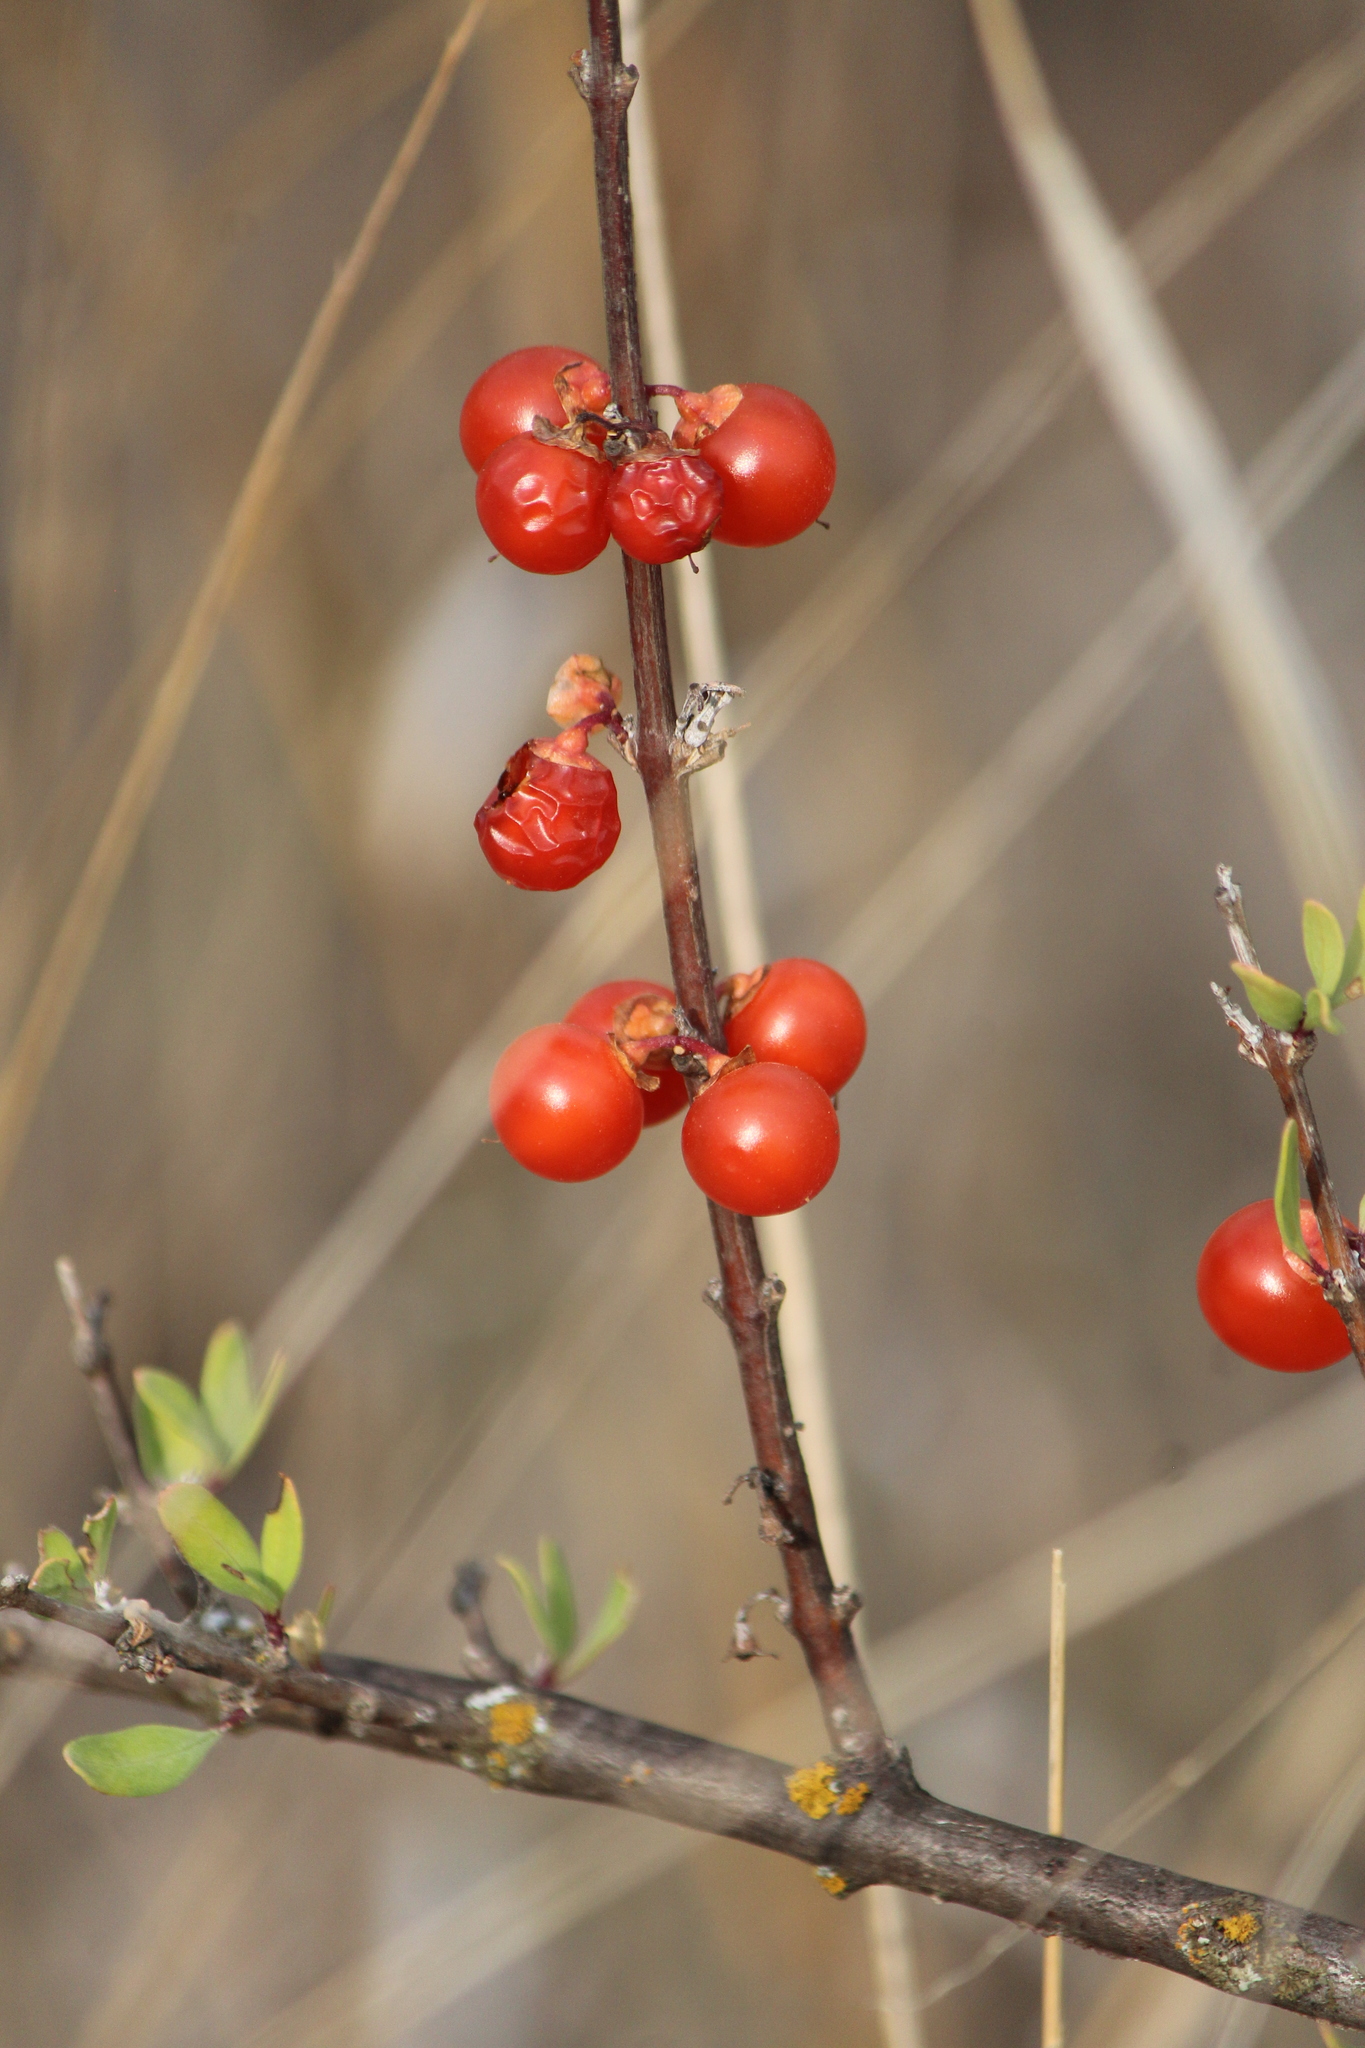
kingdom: Plantae
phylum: Tracheophyta
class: Magnoliopsida
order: Solanales
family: Solanaceae
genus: Lycium
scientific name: Lycium berlandieri
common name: Berlandier wolfberry
